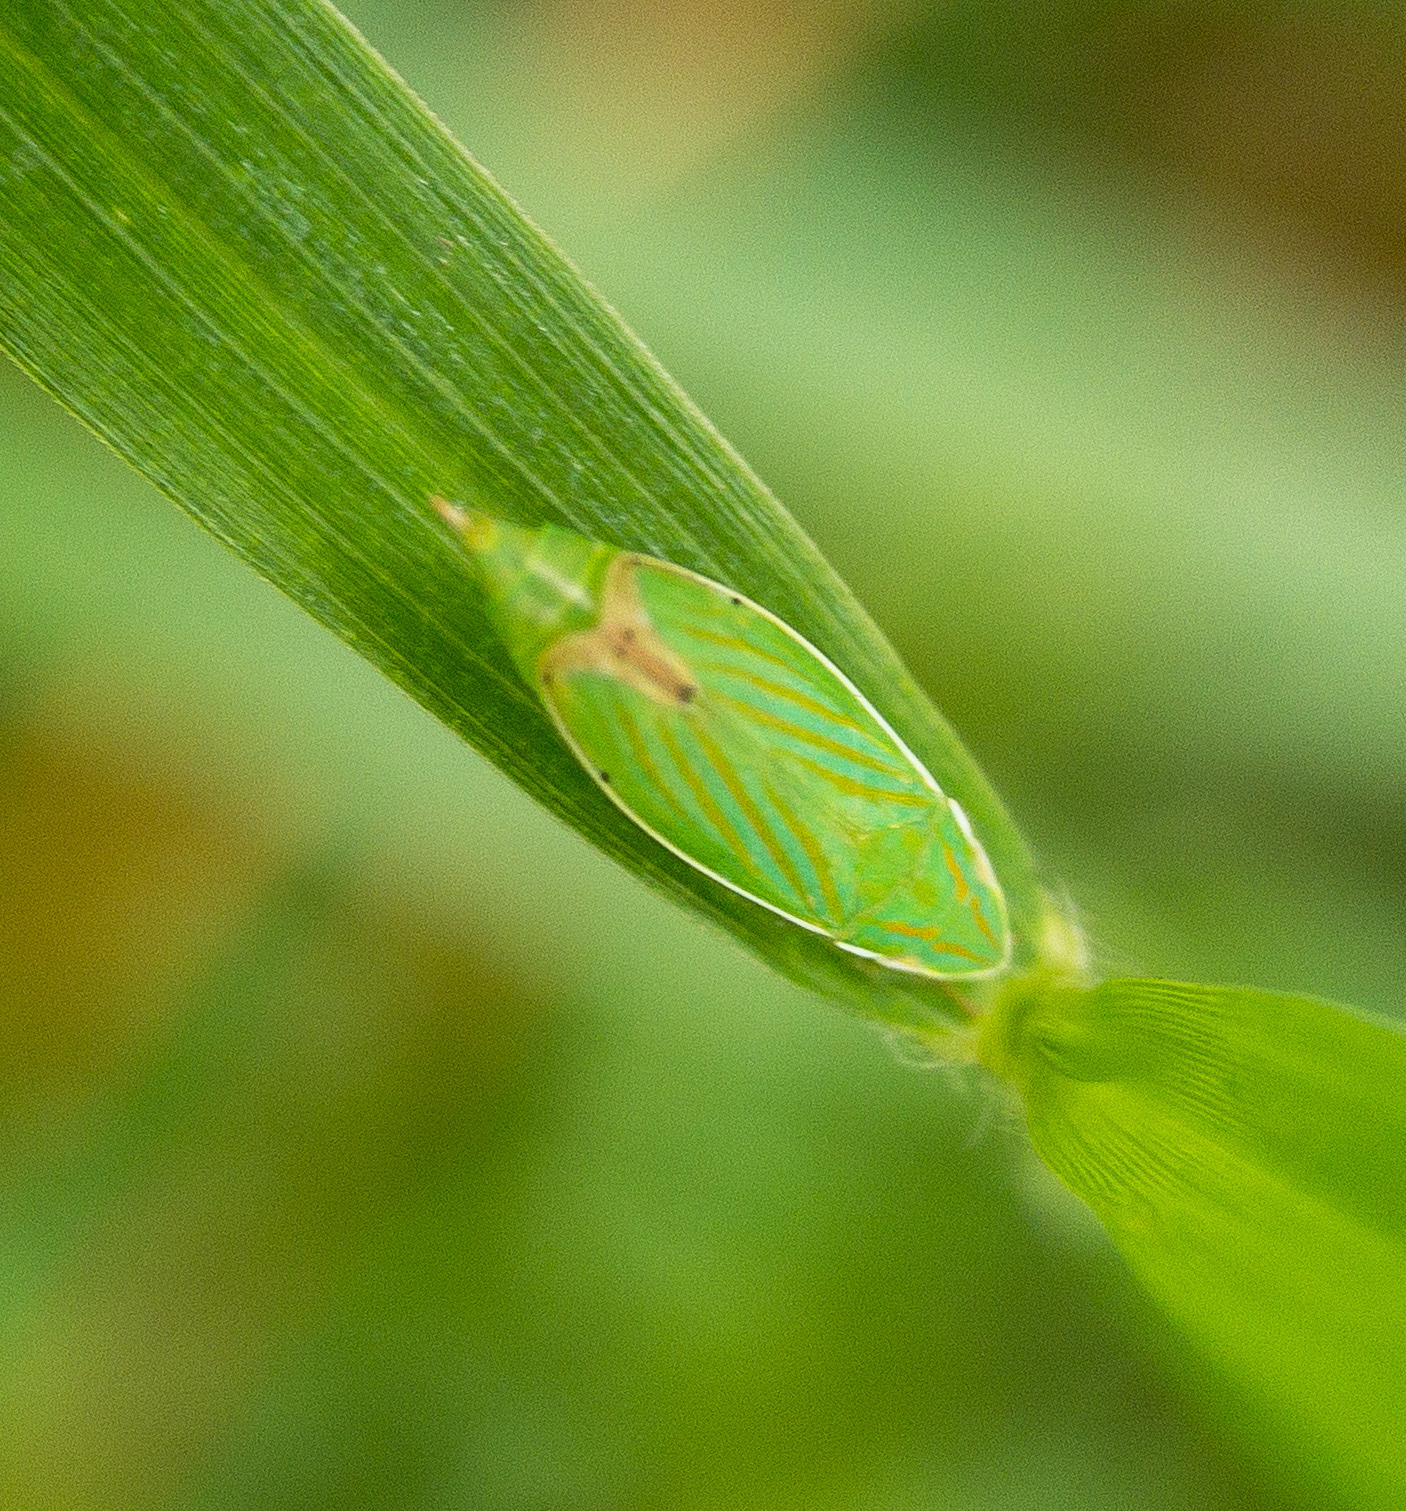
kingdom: Animalia
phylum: Arthropoda
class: Insecta
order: Hemiptera
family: Cicadellidae
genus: Spangbergiella
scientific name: Spangbergiella quadripunctata
